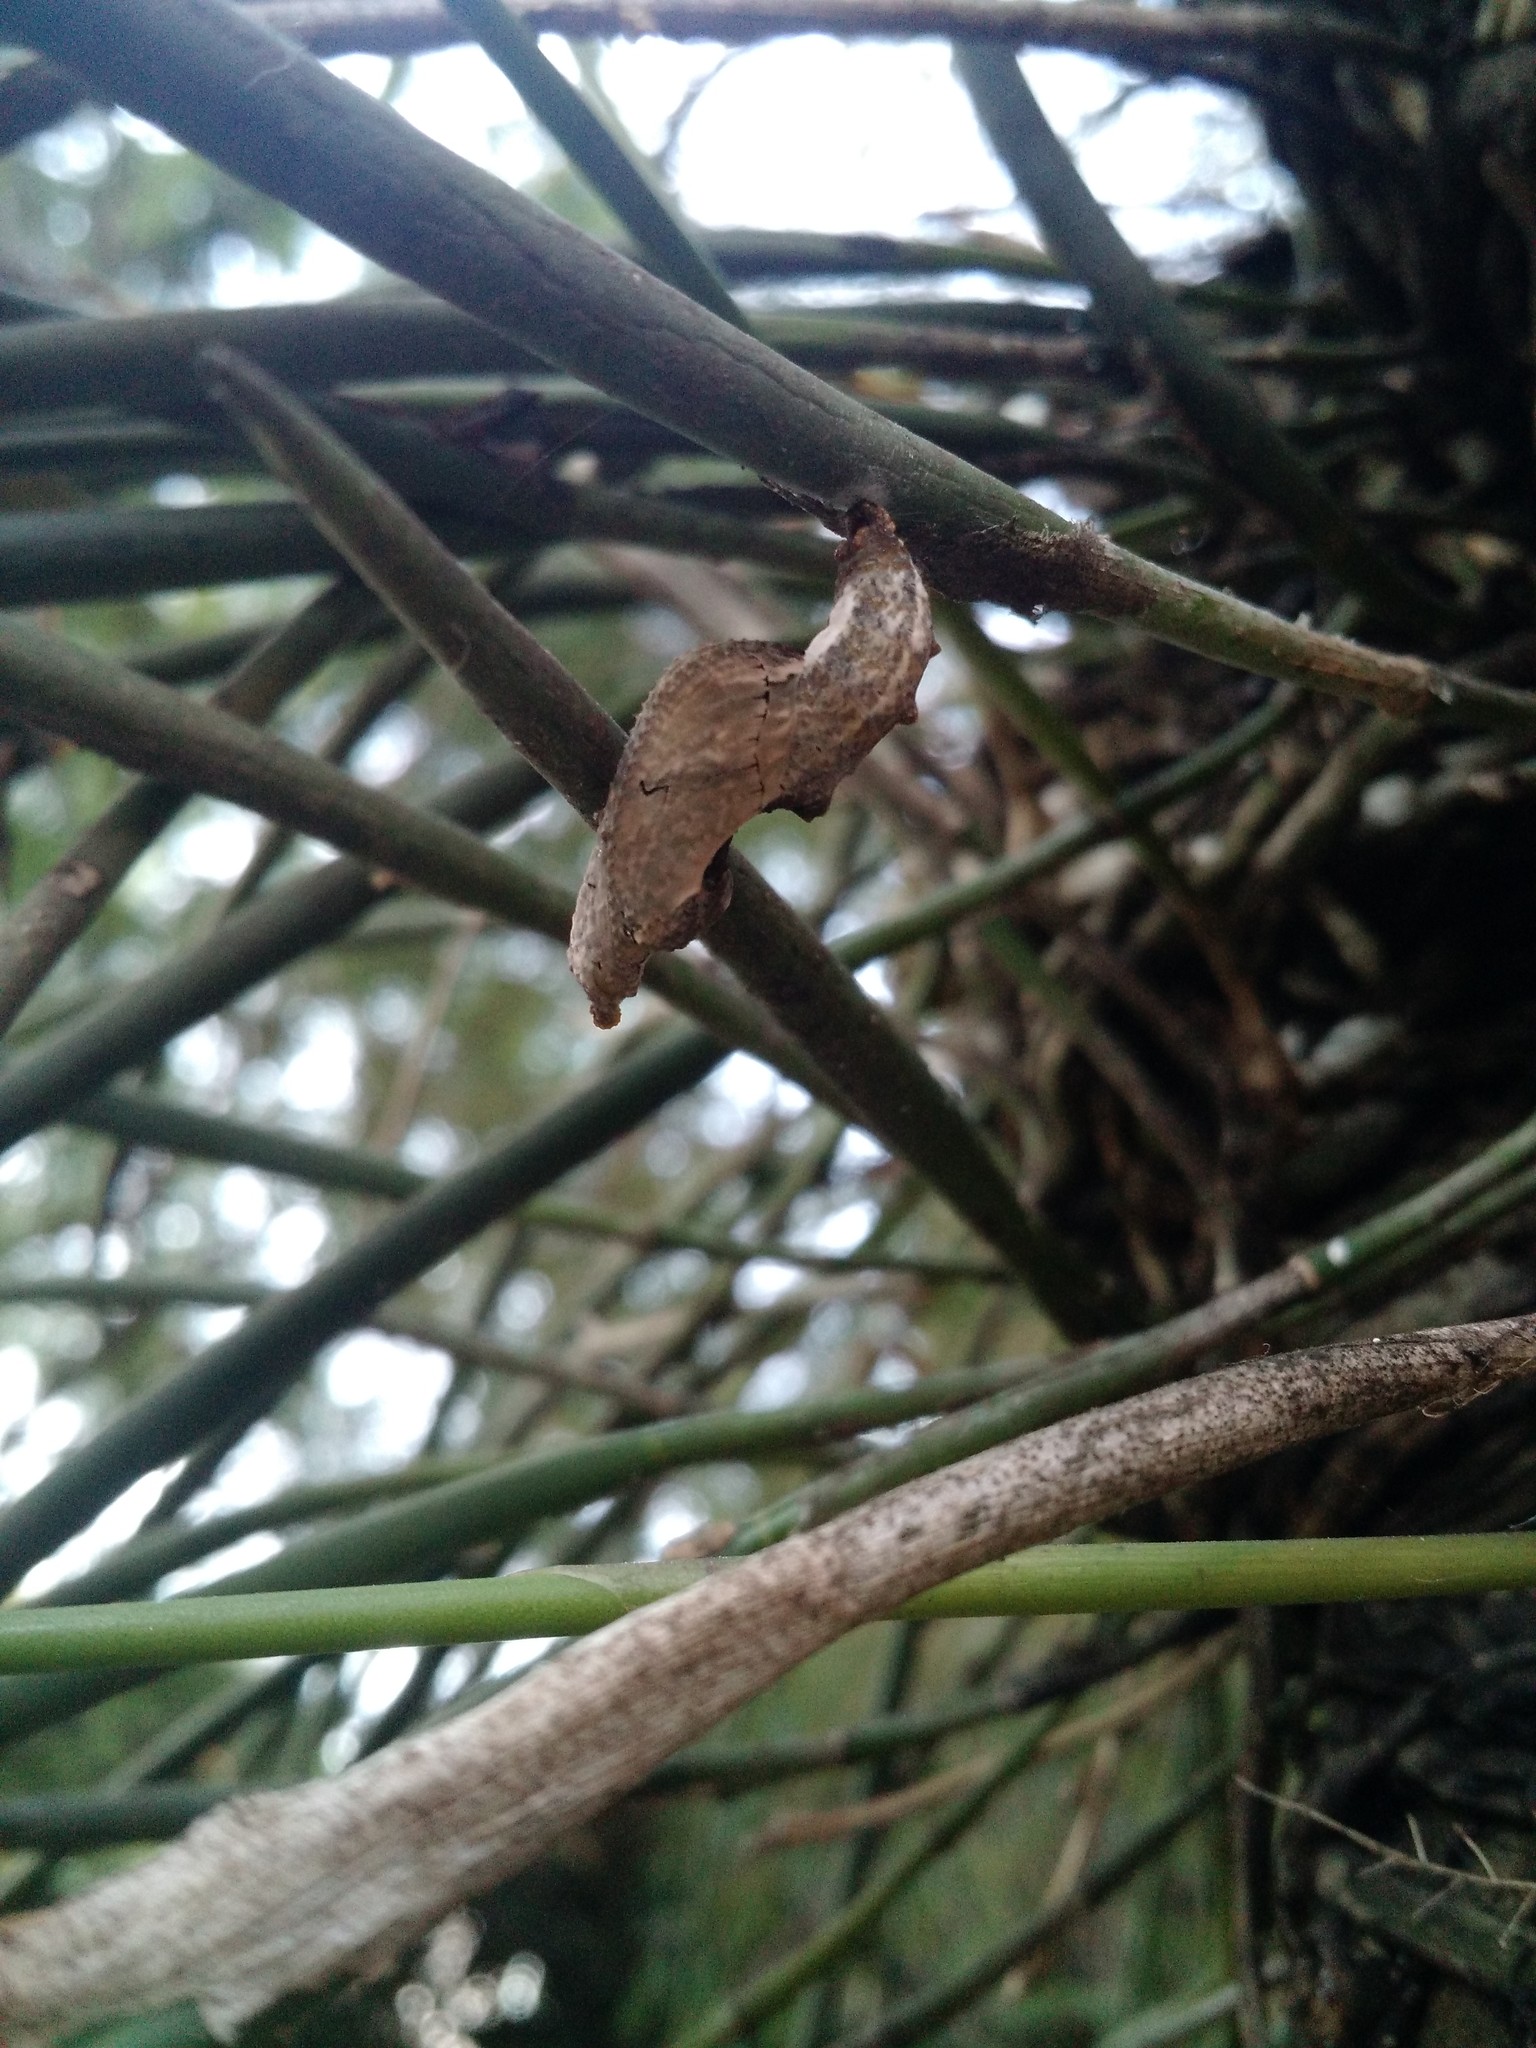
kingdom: Animalia
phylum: Arthropoda
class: Insecta
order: Lepidoptera
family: Nymphalidae
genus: Dione
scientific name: Dione vanillae
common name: Gulf fritillary
